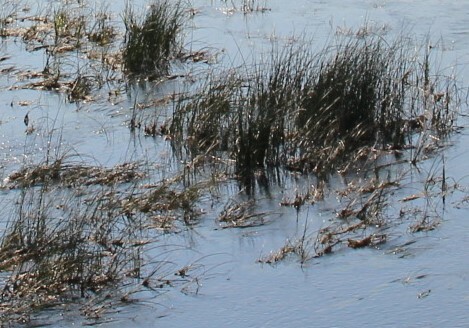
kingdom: Plantae
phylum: Tracheophyta
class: Liliopsida
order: Poales
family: Cyperaceae
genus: Schoenoplectus
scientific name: Schoenoplectus lacustris
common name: Common club-rush
